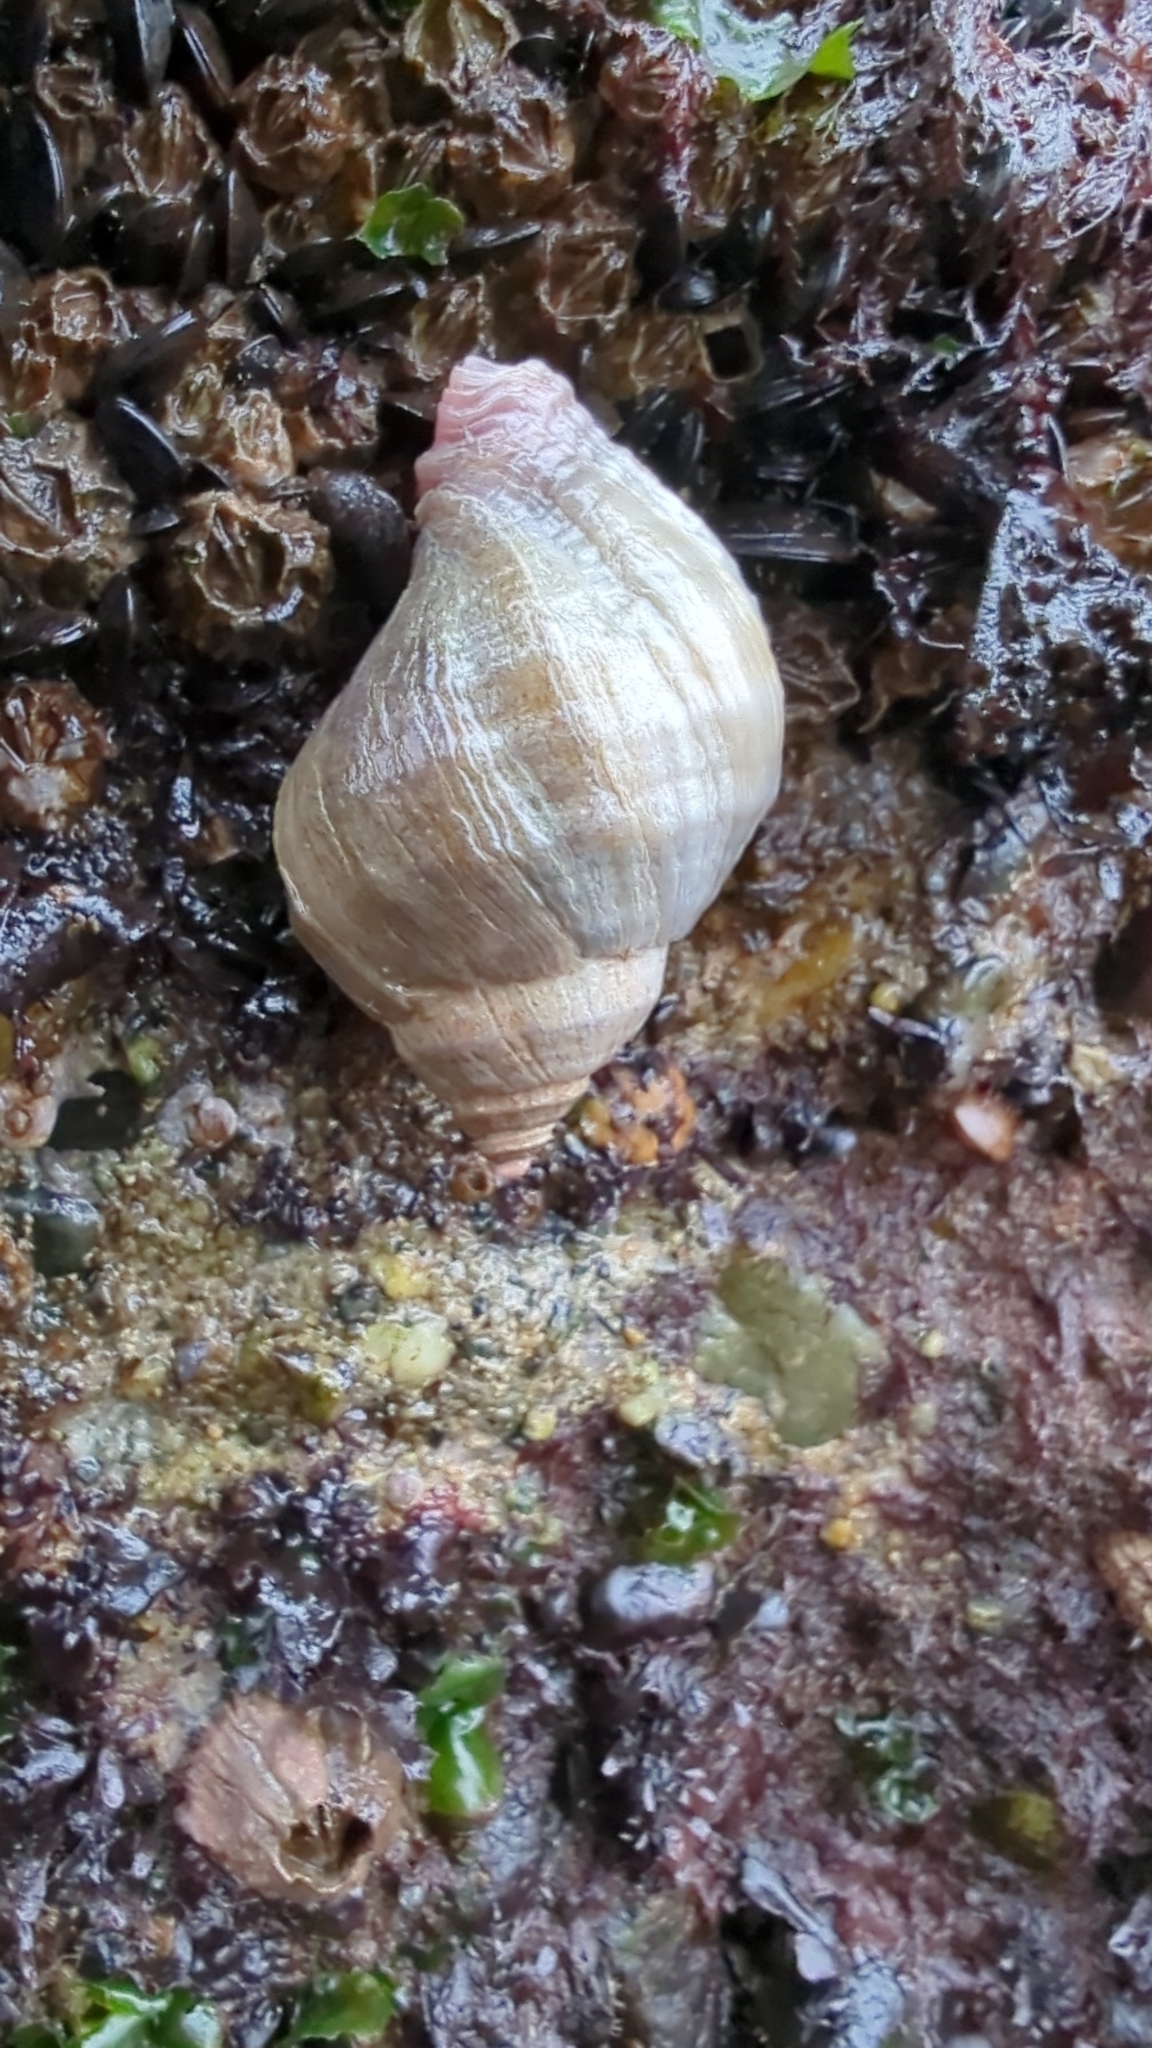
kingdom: Animalia
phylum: Mollusca
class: Gastropoda
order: Neogastropoda
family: Muricidae
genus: Nucella
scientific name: Nucella lamellosa
